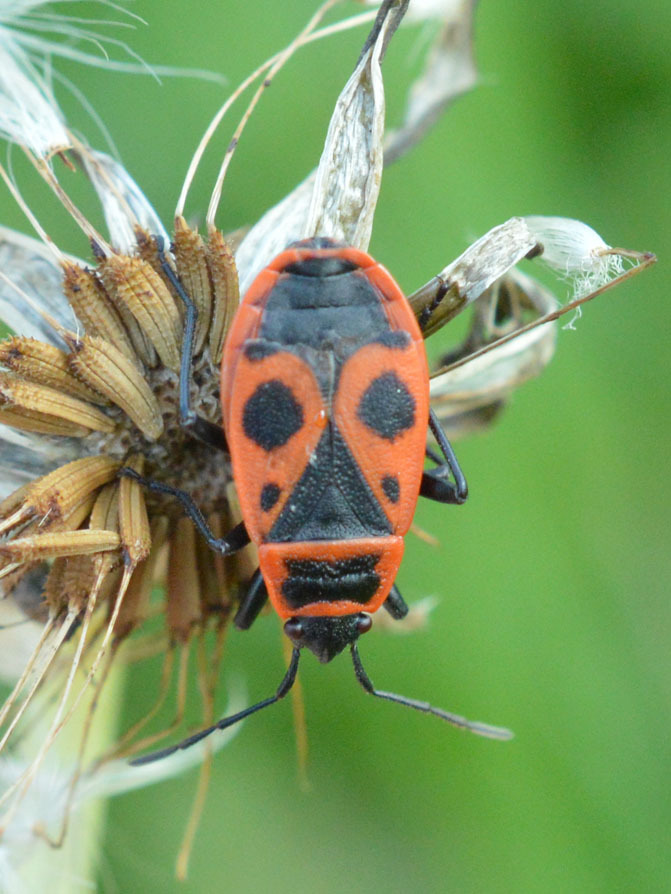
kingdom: Animalia
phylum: Arthropoda
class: Insecta
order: Hemiptera
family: Pyrrhocoridae
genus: Pyrrhocoris
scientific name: Pyrrhocoris apterus
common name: Firebug
